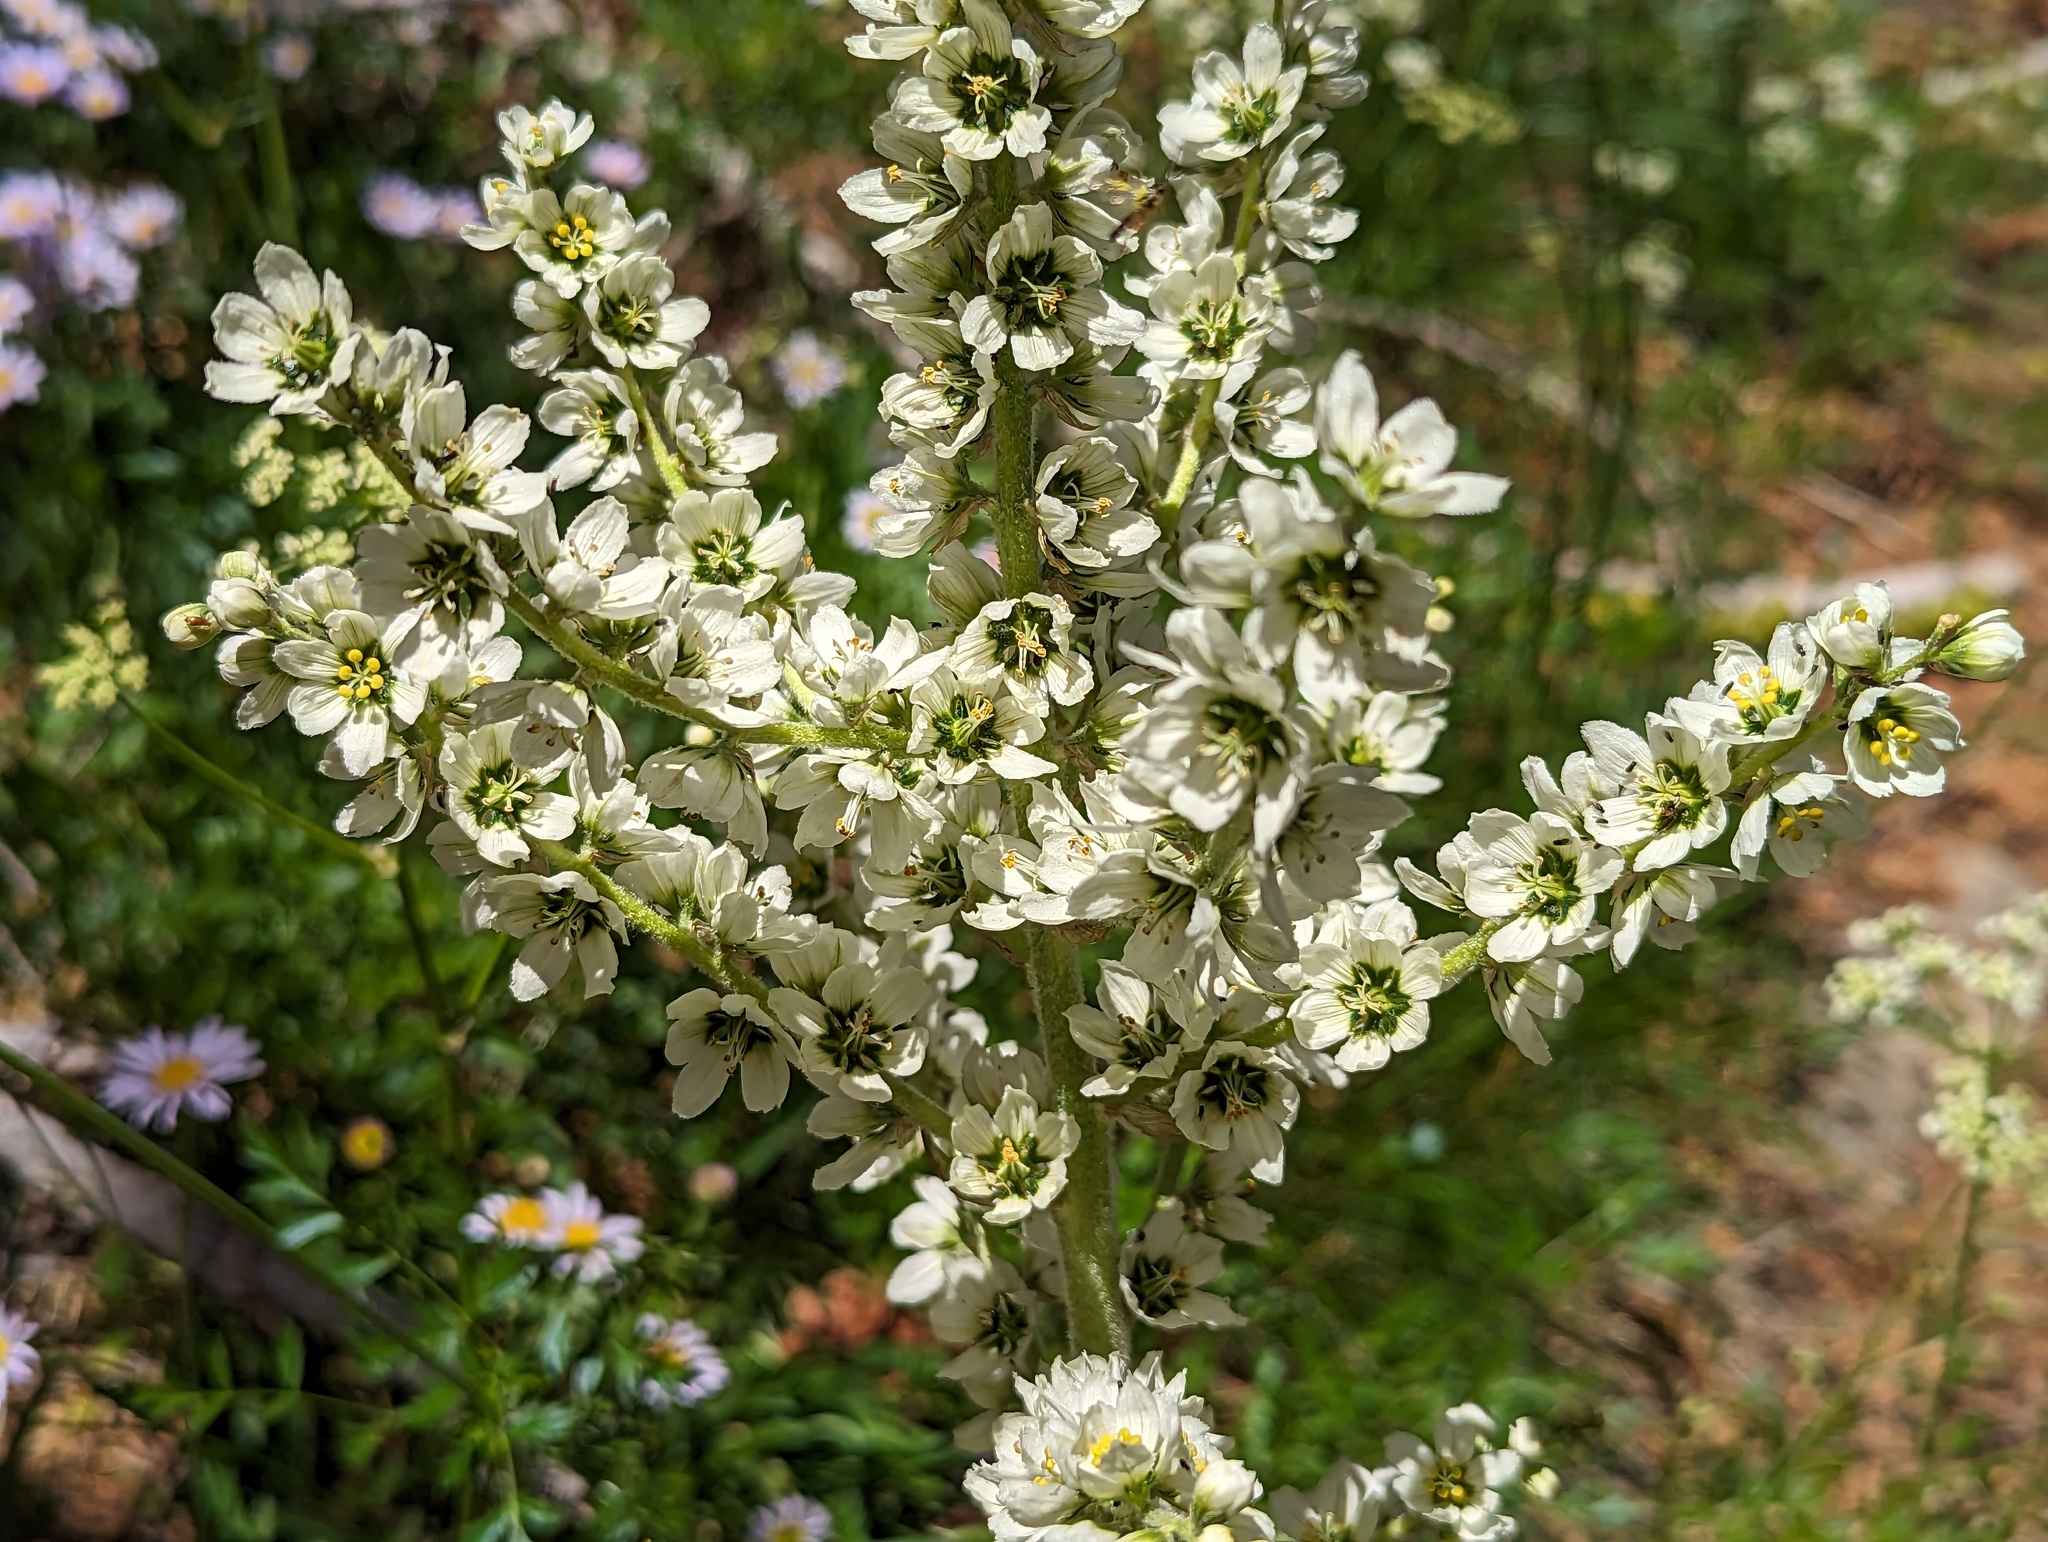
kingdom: Plantae
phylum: Tracheophyta
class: Liliopsida
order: Liliales
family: Melanthiaceae
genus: Veratrum
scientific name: Veratrum californicum
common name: California veratrum
